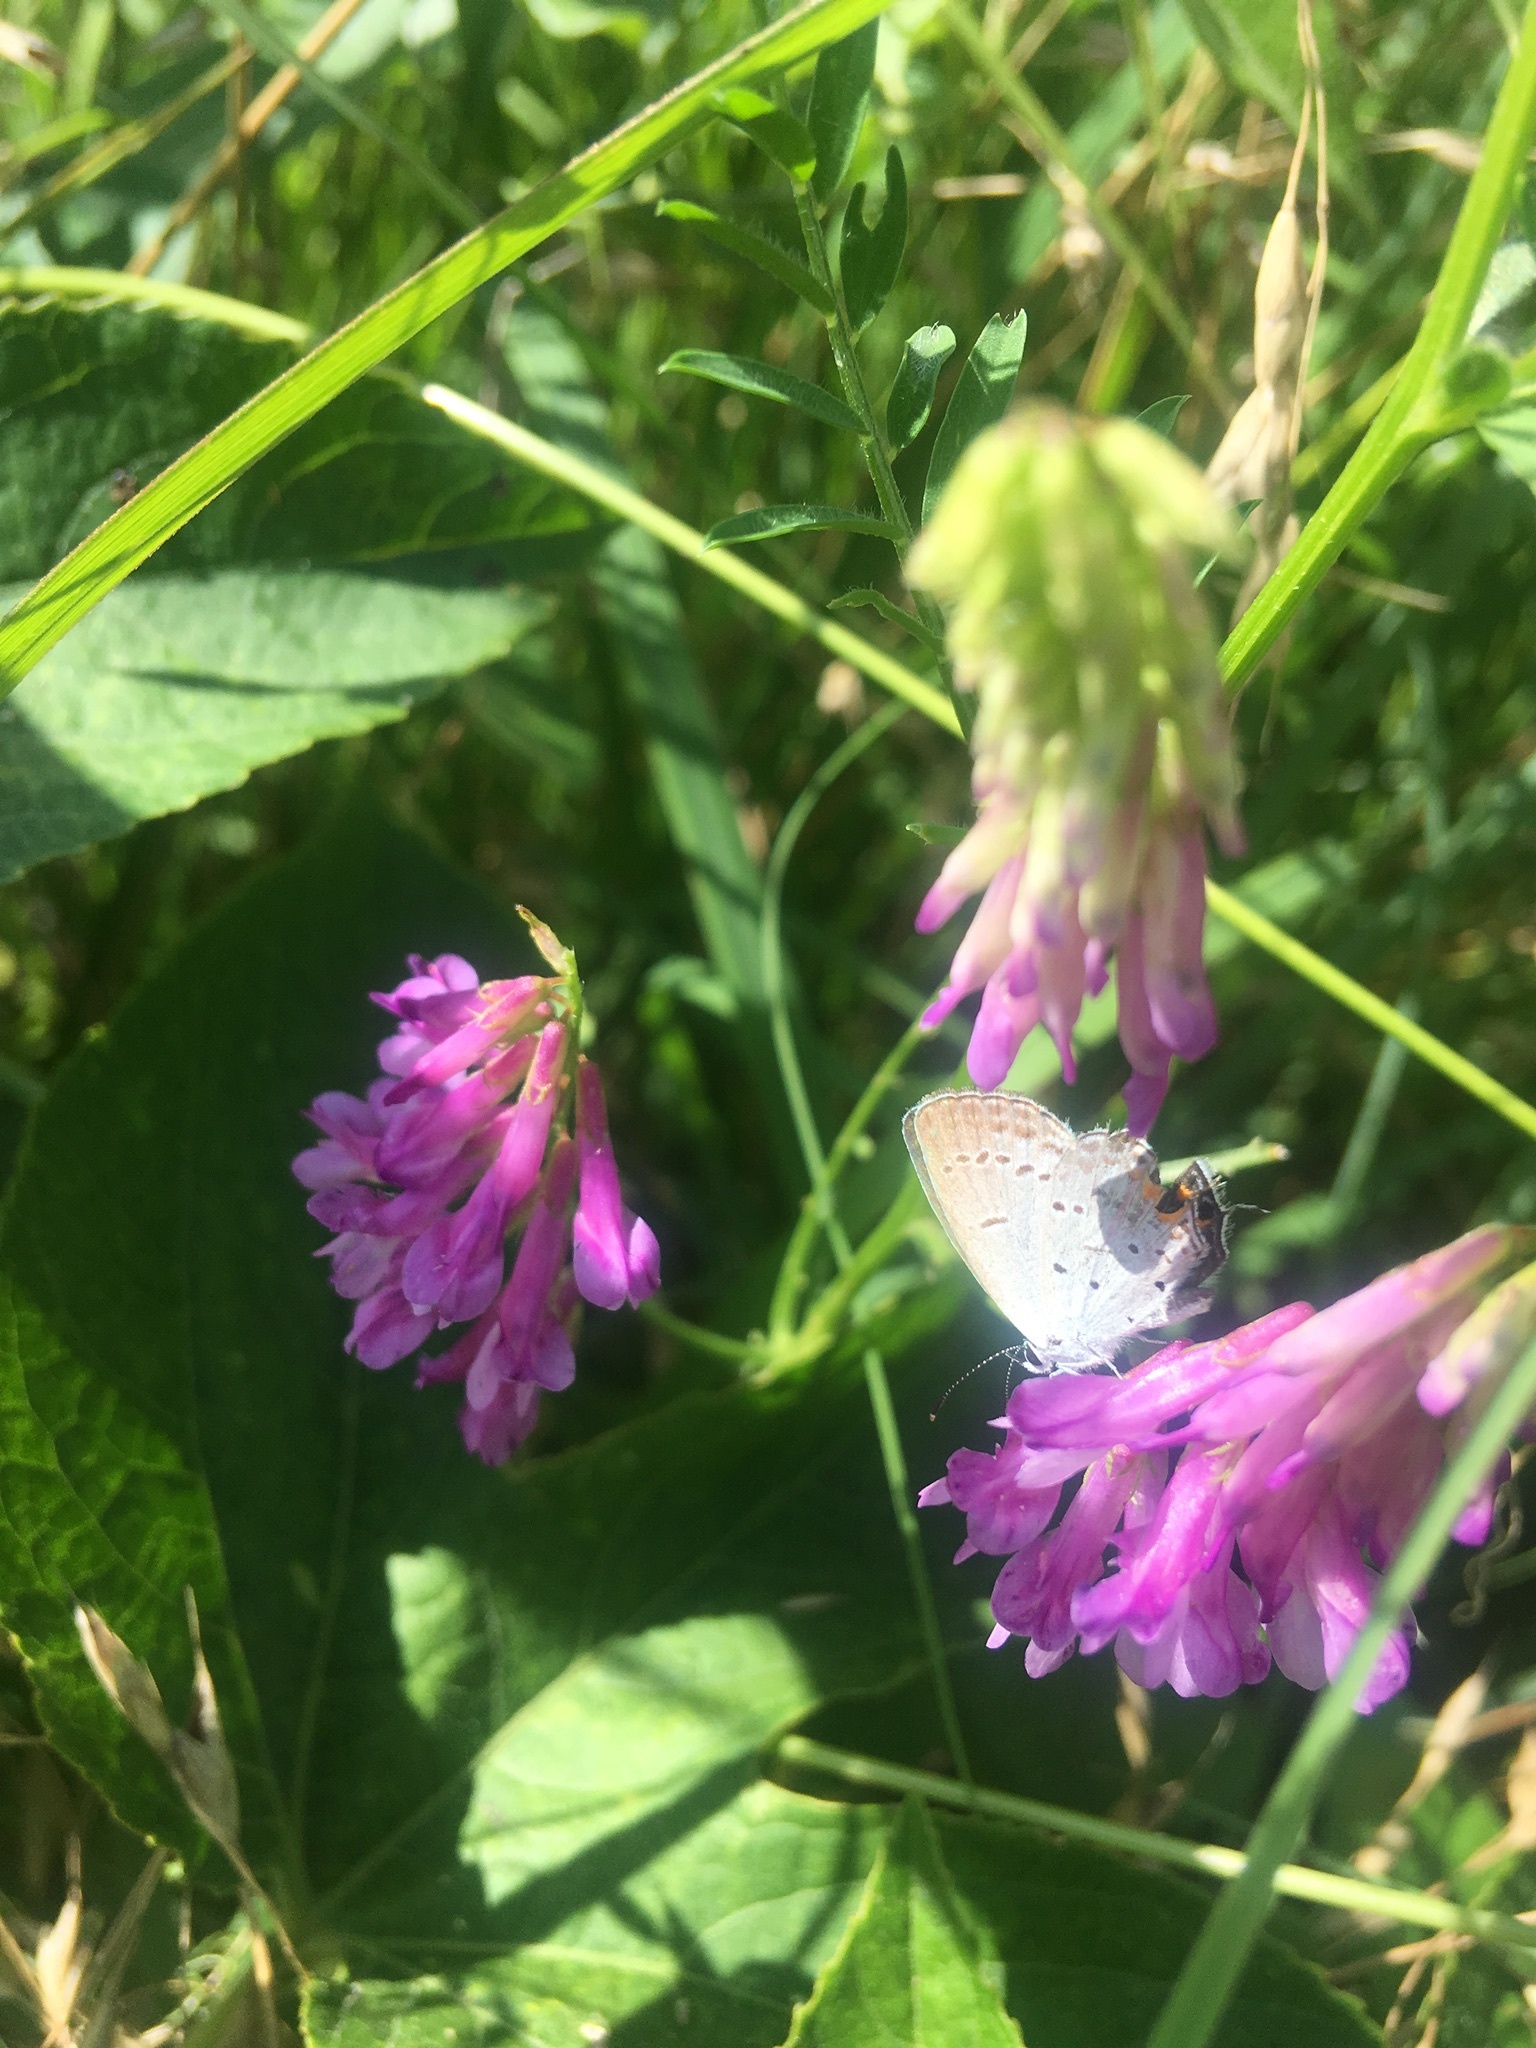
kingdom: Animalia
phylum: Arthropoda
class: Insecta
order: Lepidoptera
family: Lycaenidae
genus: Elkalyce
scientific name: Elkalyce comyntas
